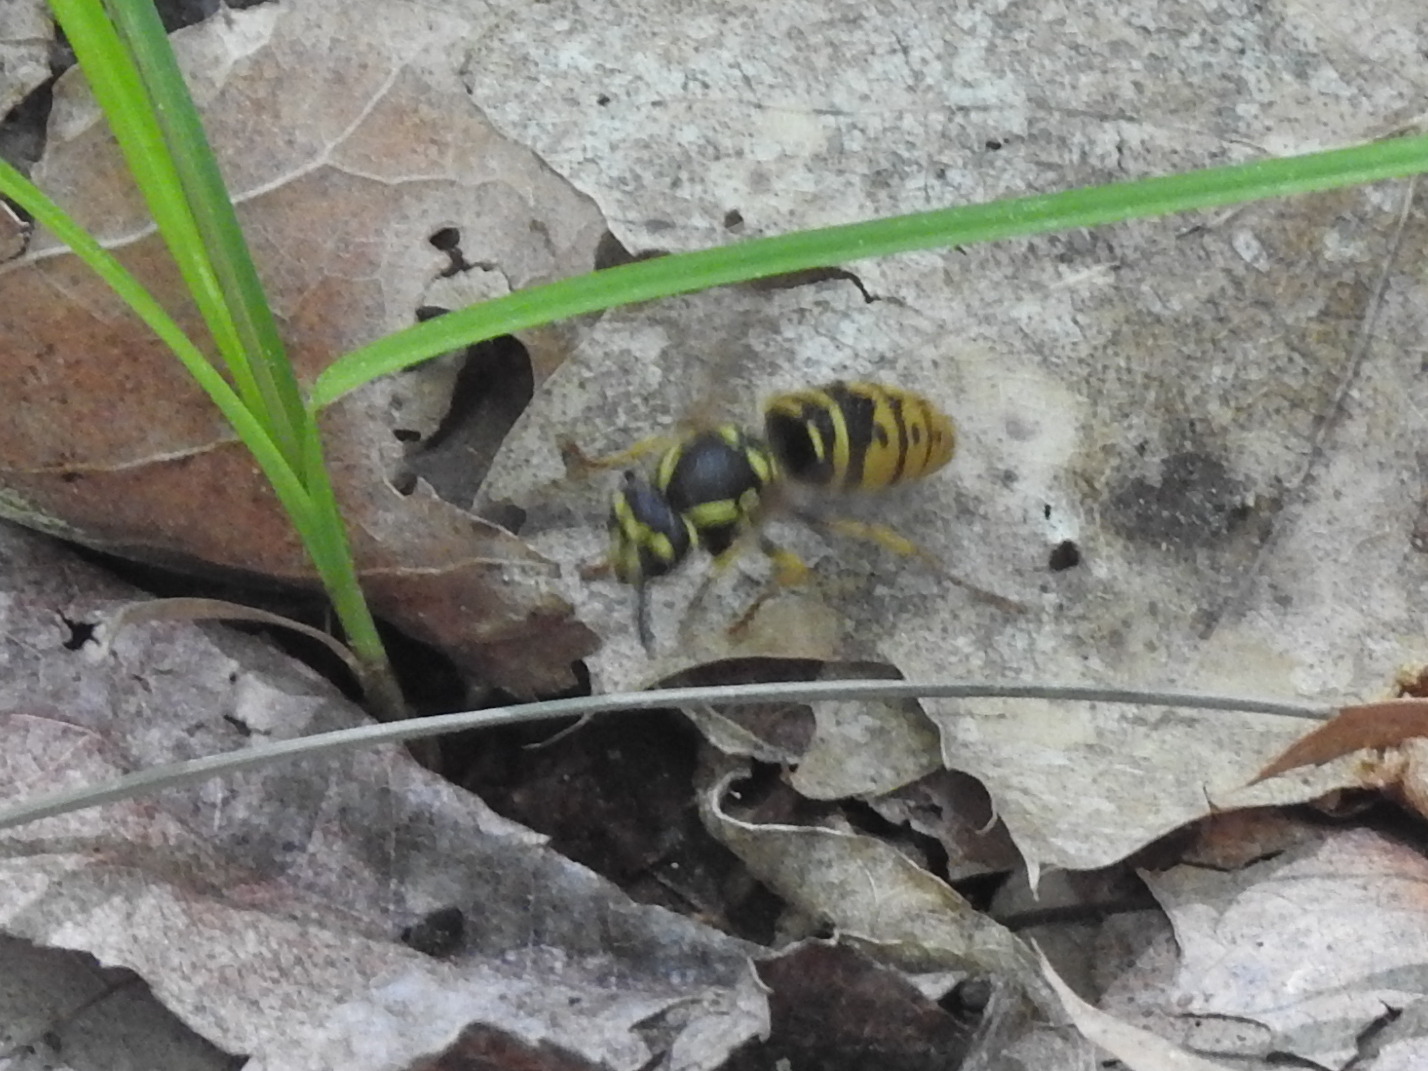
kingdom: Animalia
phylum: Arthropoda
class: Insecta
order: Hymenoptera
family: Vespidae
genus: Vespula
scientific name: Vespula maculifrons
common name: Eastern yellowjacket
